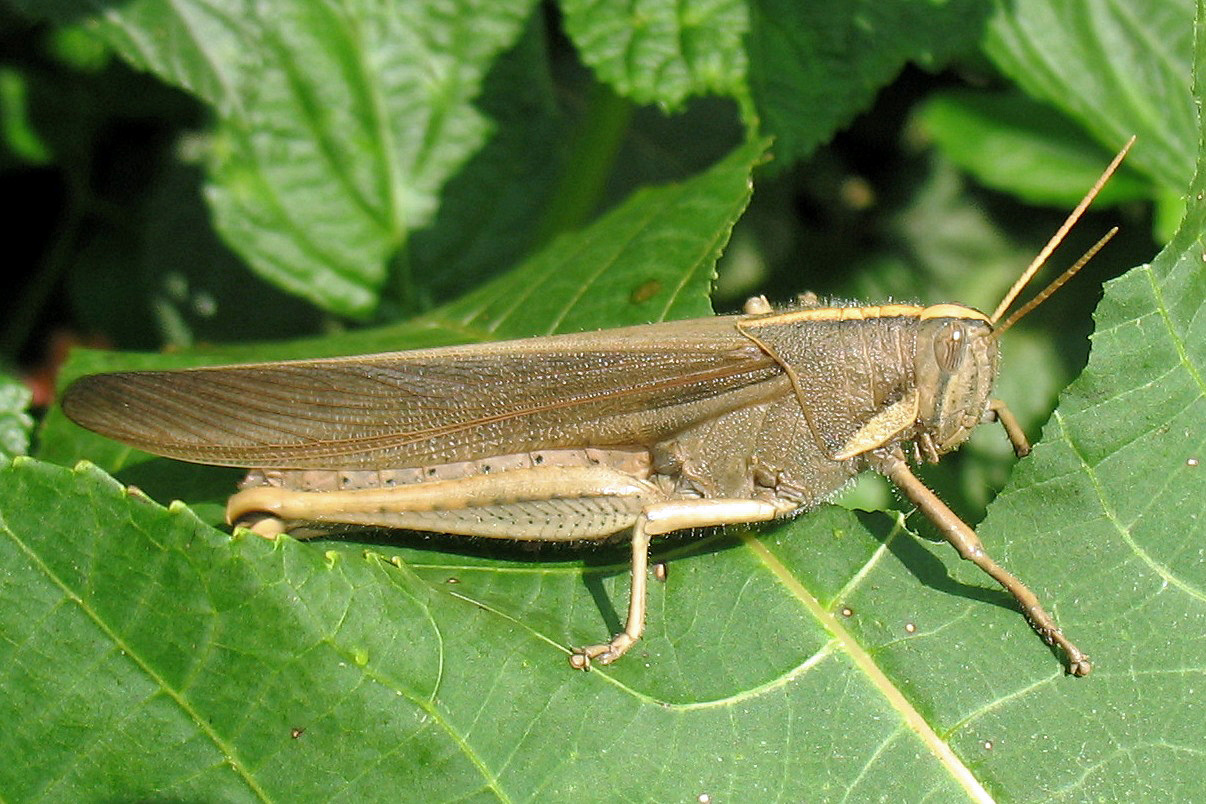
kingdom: Animalia
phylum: Arthropoda
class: Insecta
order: Orthoptera
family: Acrididae
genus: Schistocerca
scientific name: Schistocerca flavofasciata
